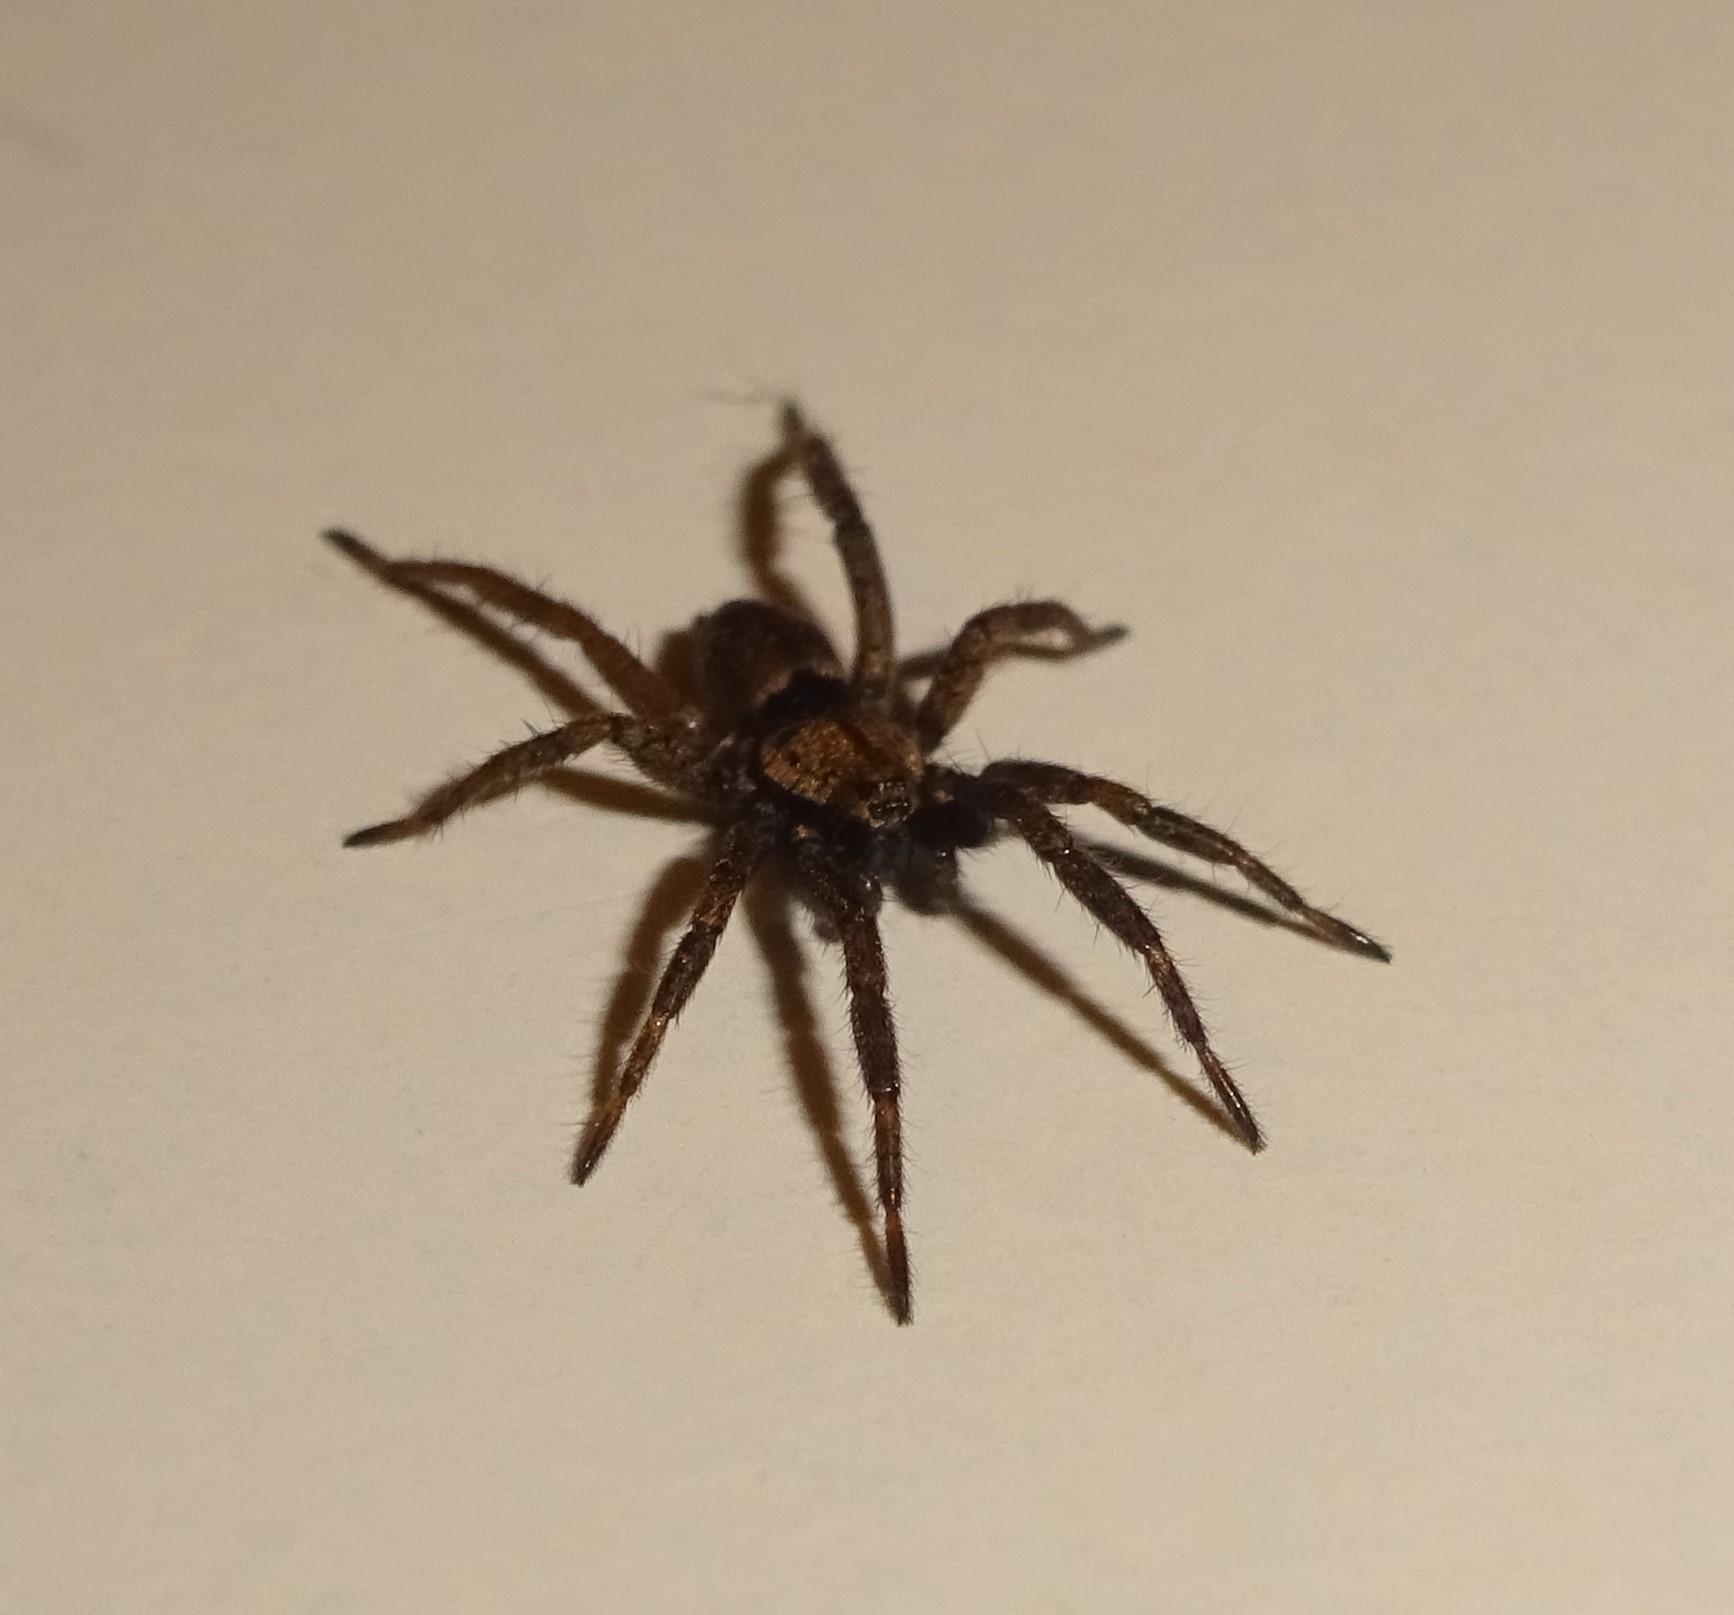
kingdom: Animalia
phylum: Arthropoda
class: Arachnida
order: Araneae
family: Gnaphosidae
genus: Nomisia
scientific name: Nomisia
